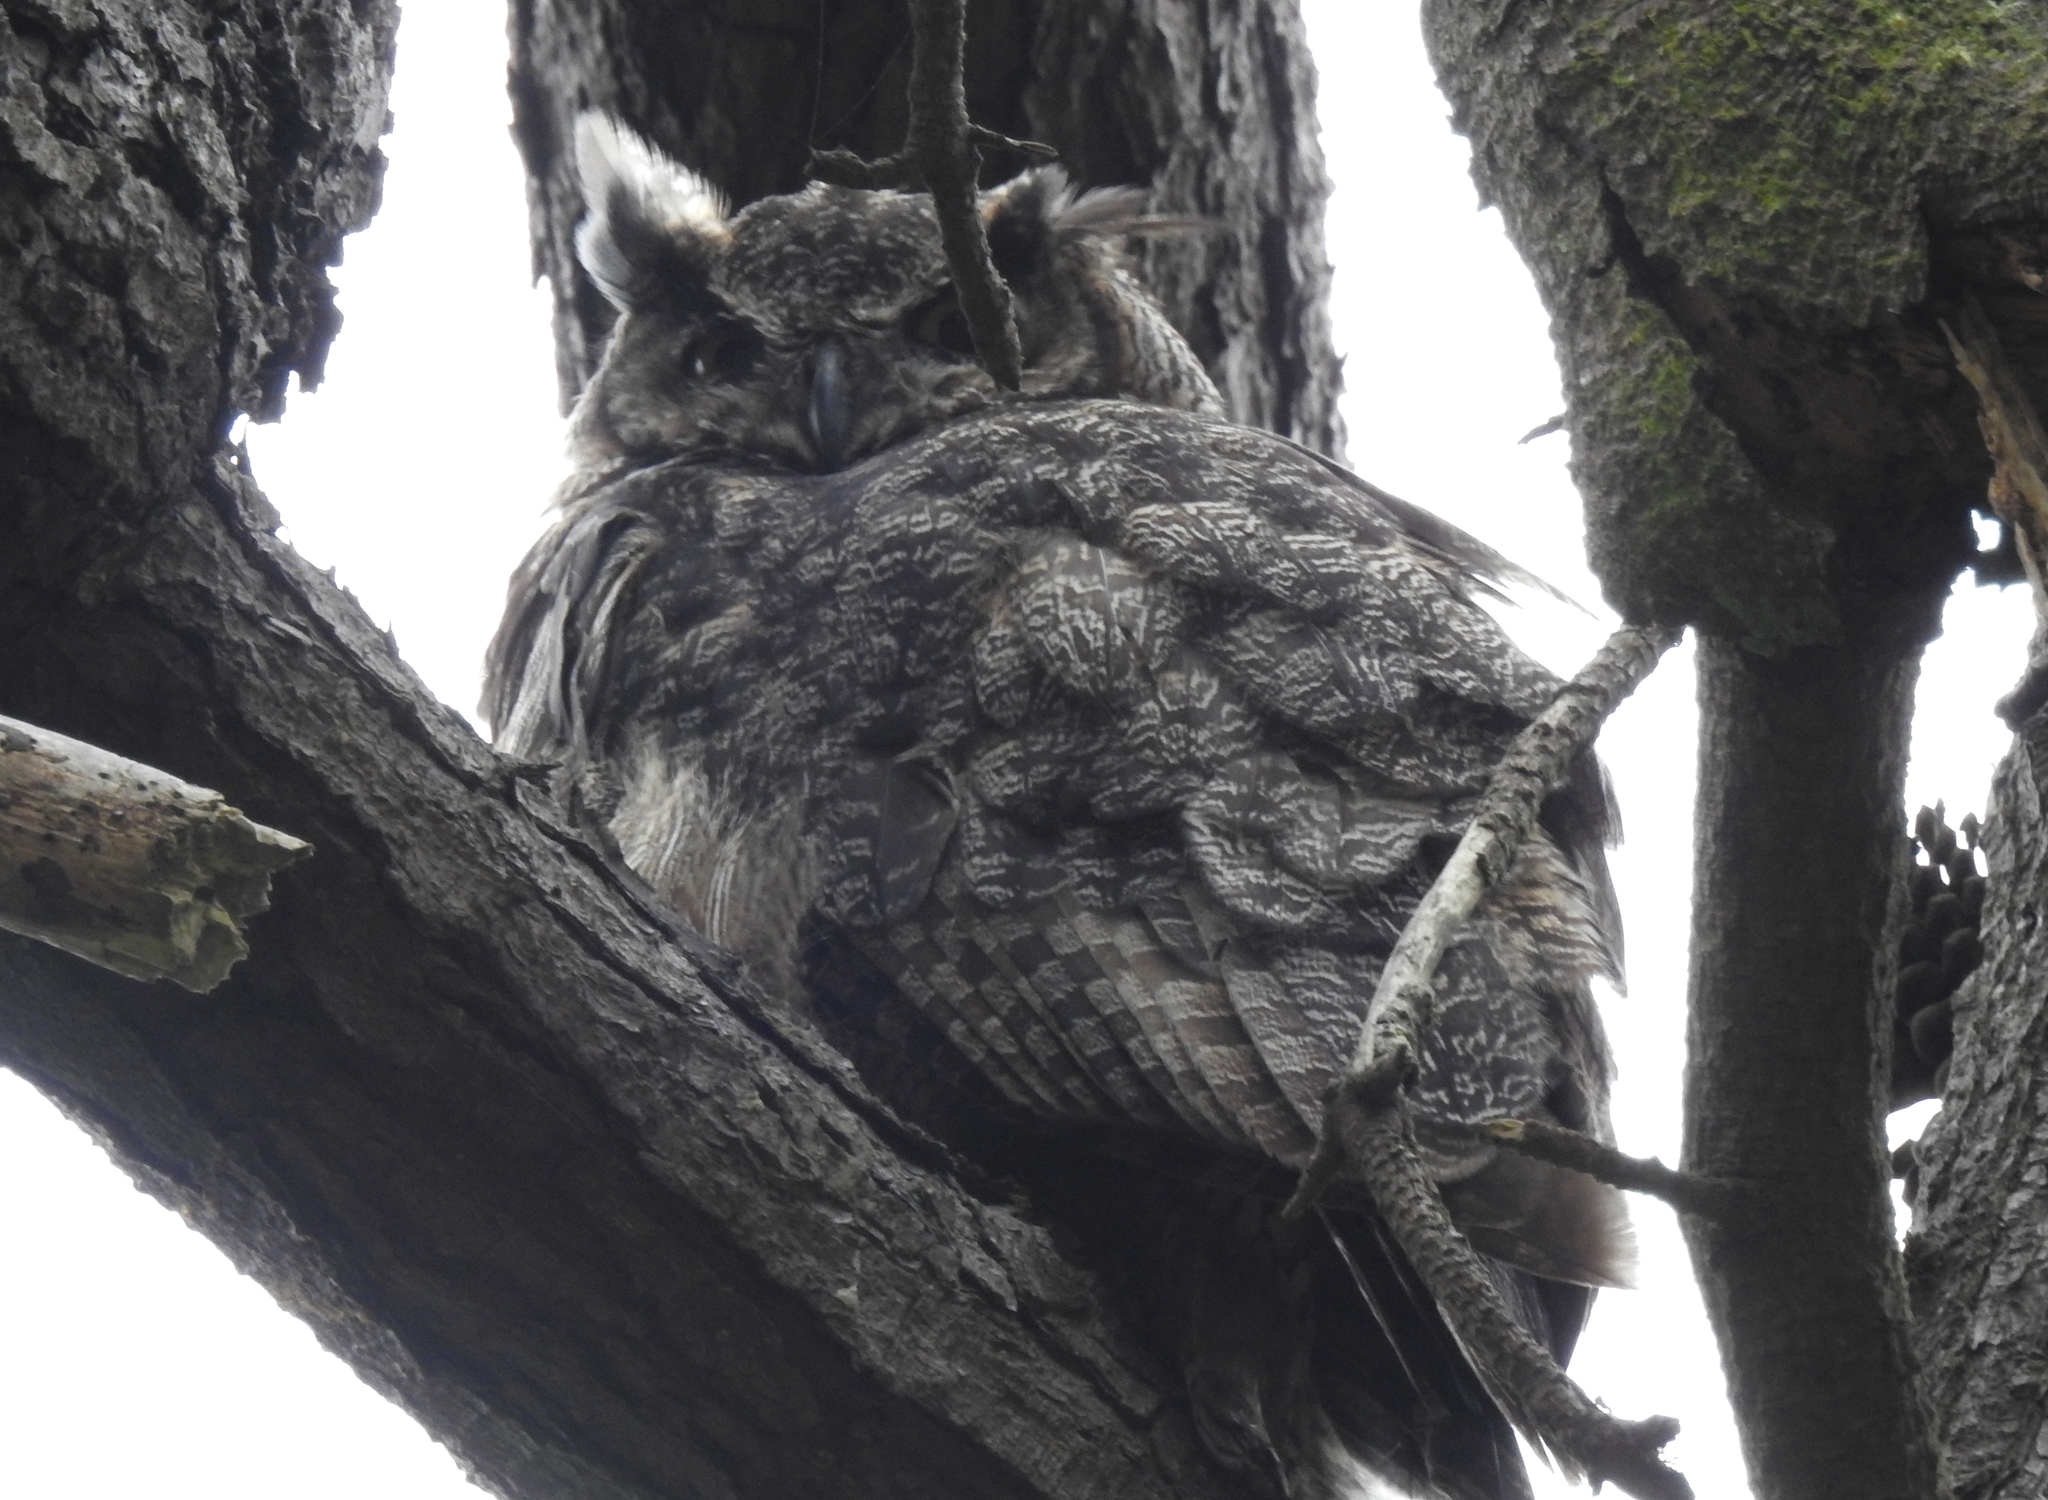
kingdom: Animalia
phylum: Chordata
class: Aves
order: Strigiformes
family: Strigidae
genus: Bubo
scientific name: Bubo virginianus
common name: Great horned owl
